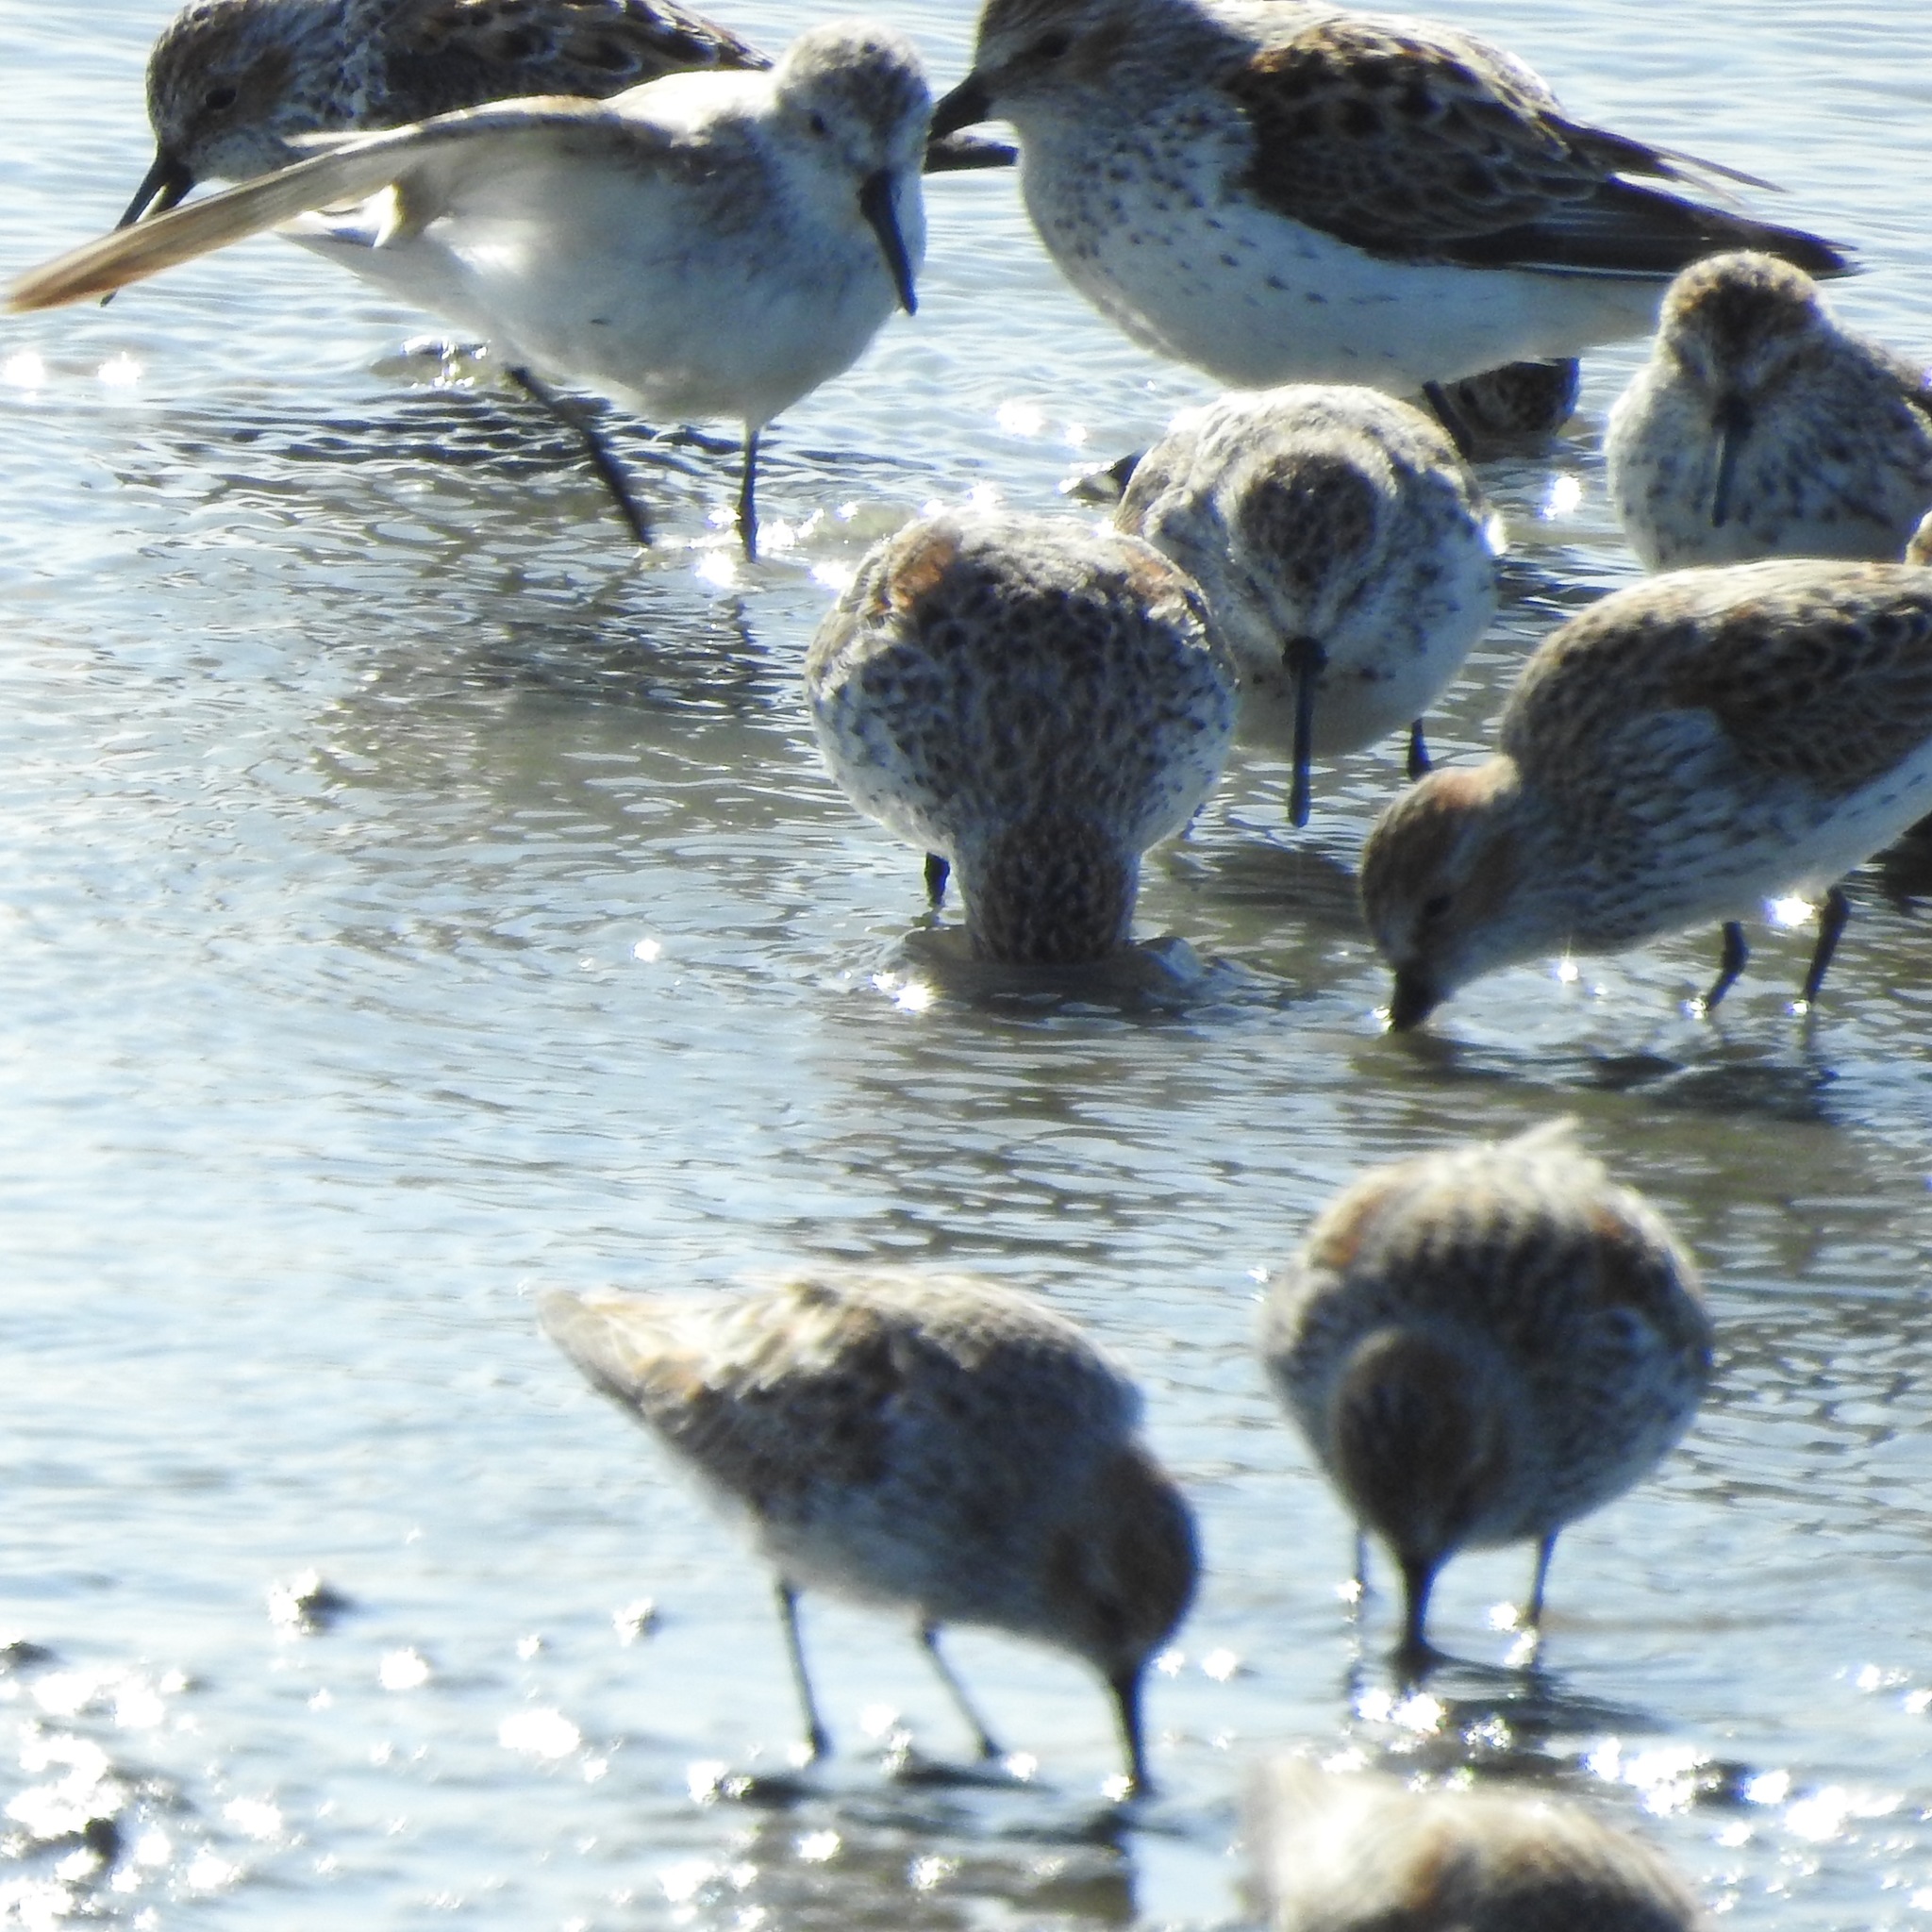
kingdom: Animalia
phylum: Chordata
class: Aves
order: Charadriiformes
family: Scolopacidae
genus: Calidris
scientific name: Calidris mauri
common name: Western sandpiper
